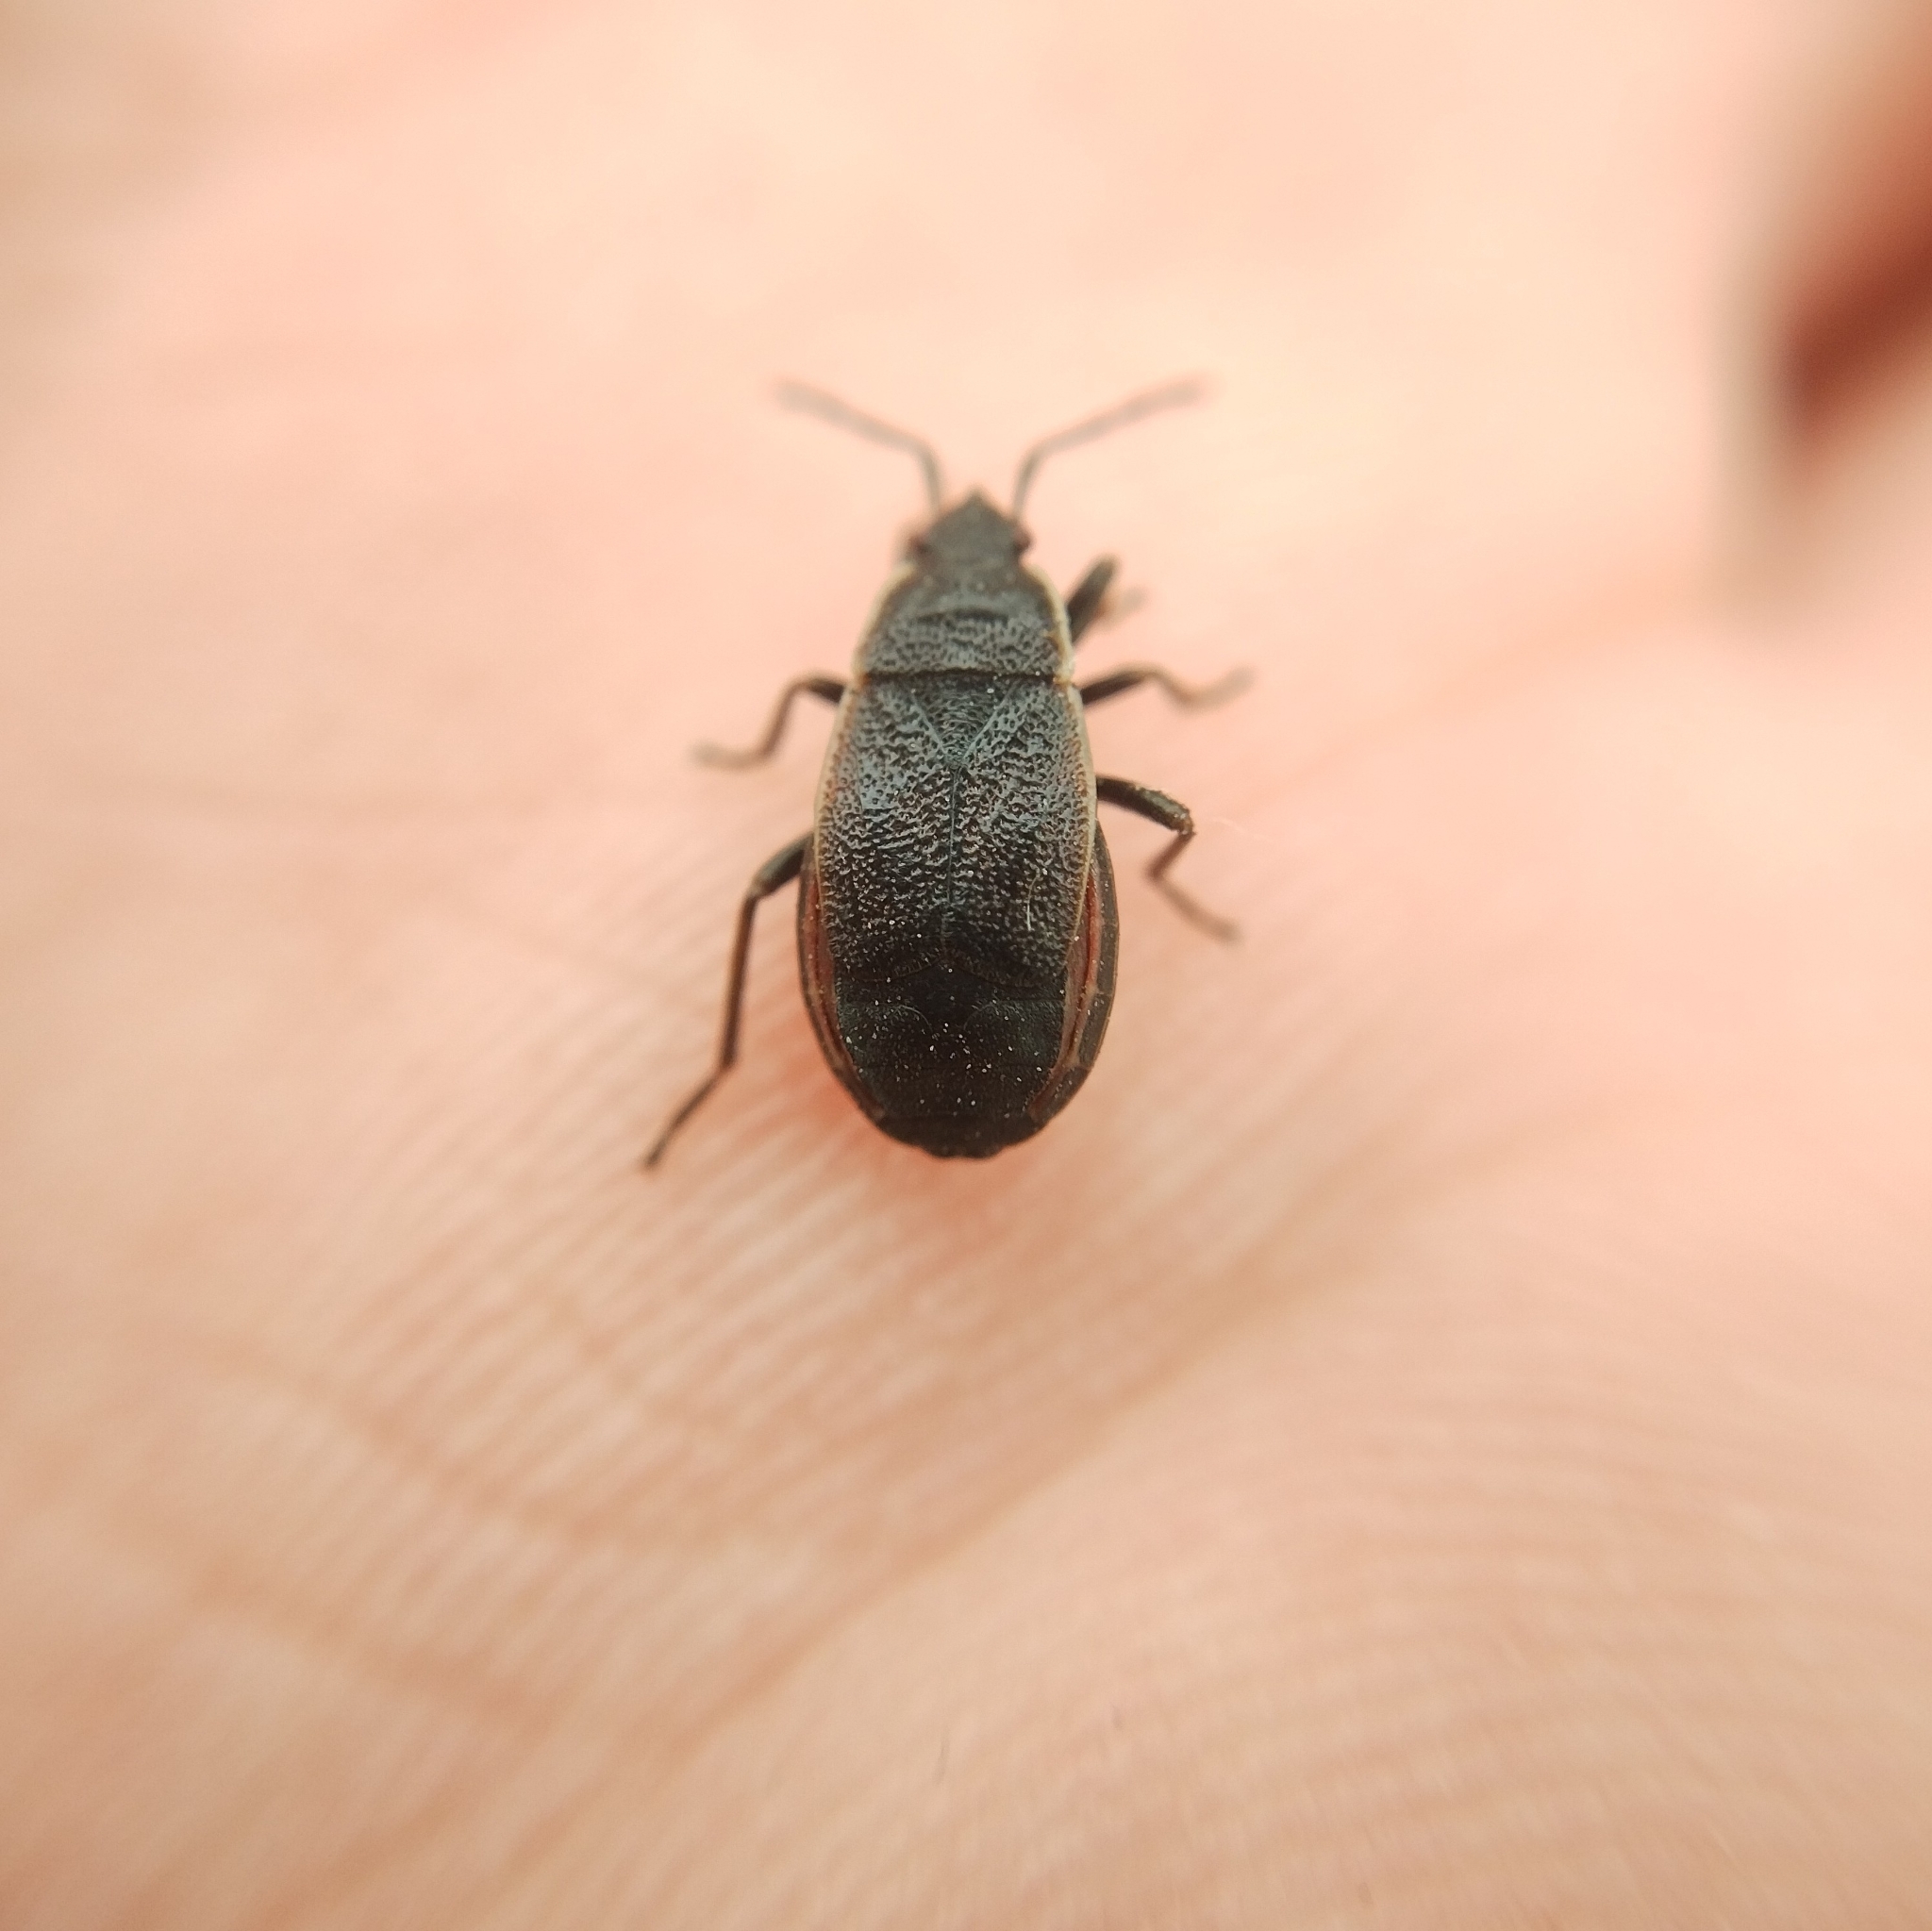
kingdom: Animalia
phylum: Arthropoda
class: Insecta
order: Hemiptera
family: Pyrrhocoridae
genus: Pyrrhocoris
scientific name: Pyrrhocoris marginatus
